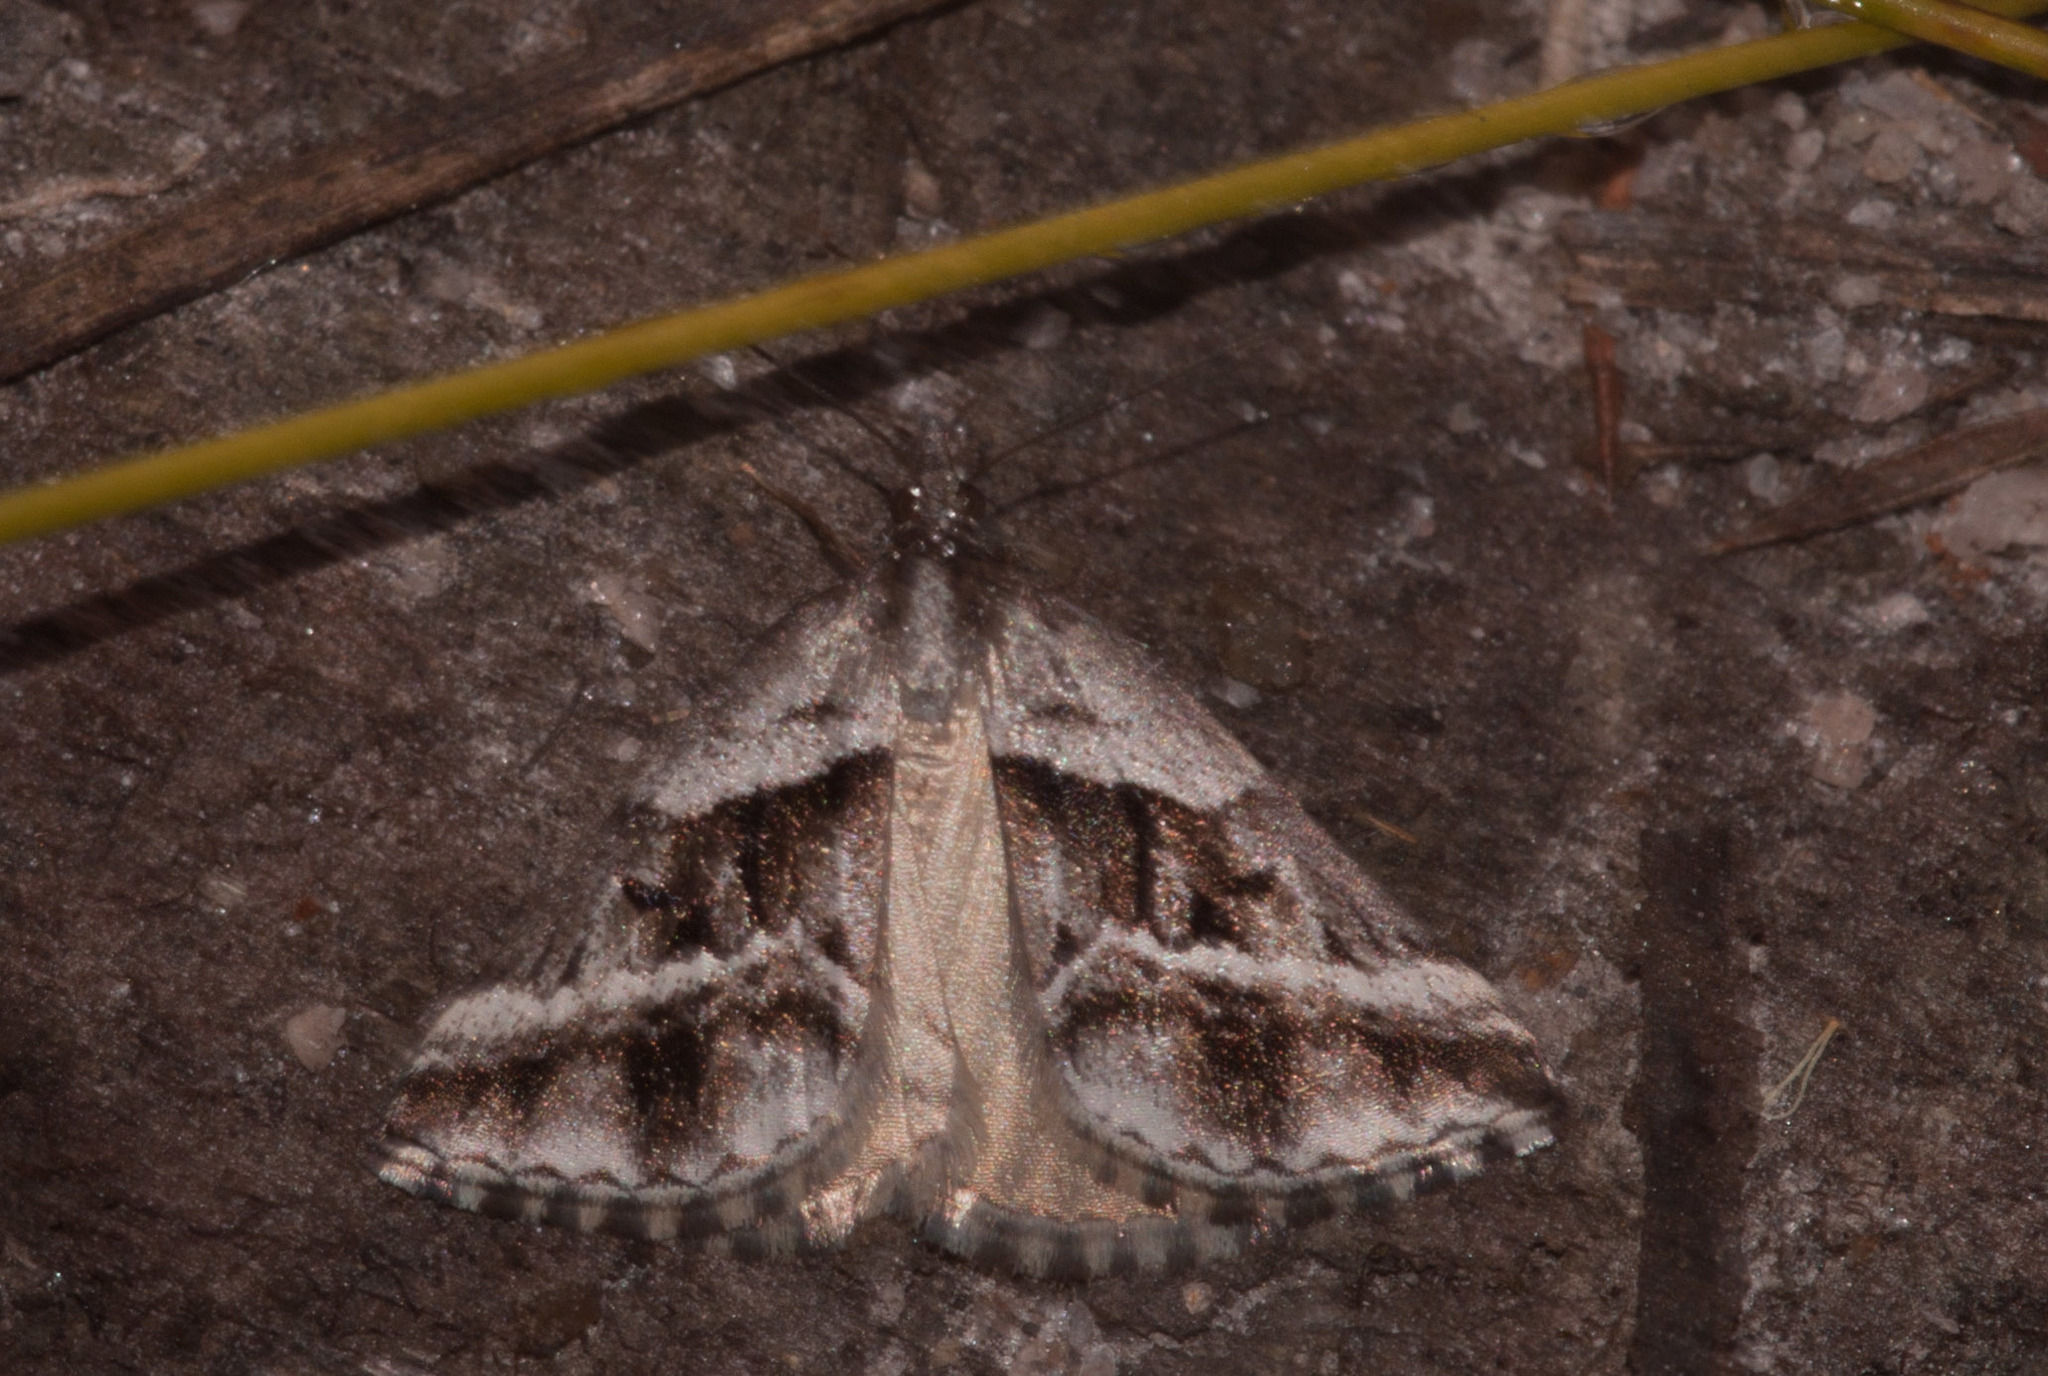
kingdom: Animalia
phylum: Arthropoda
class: Insecta
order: Lepidoptera
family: Geometridae
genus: Dichromodes
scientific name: Dichromodes stilbiata
